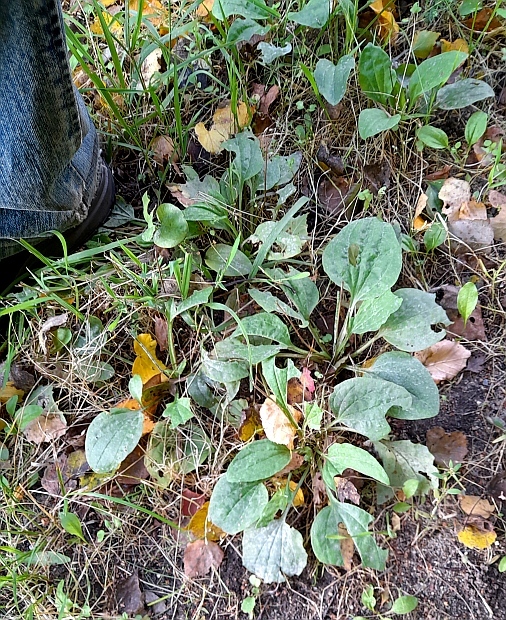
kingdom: Plantae
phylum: Tracheophyta
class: Magnoliopsida
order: Lamiales
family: Plantaginaceae
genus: Plantago
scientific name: Plantago major
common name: Common plantain
